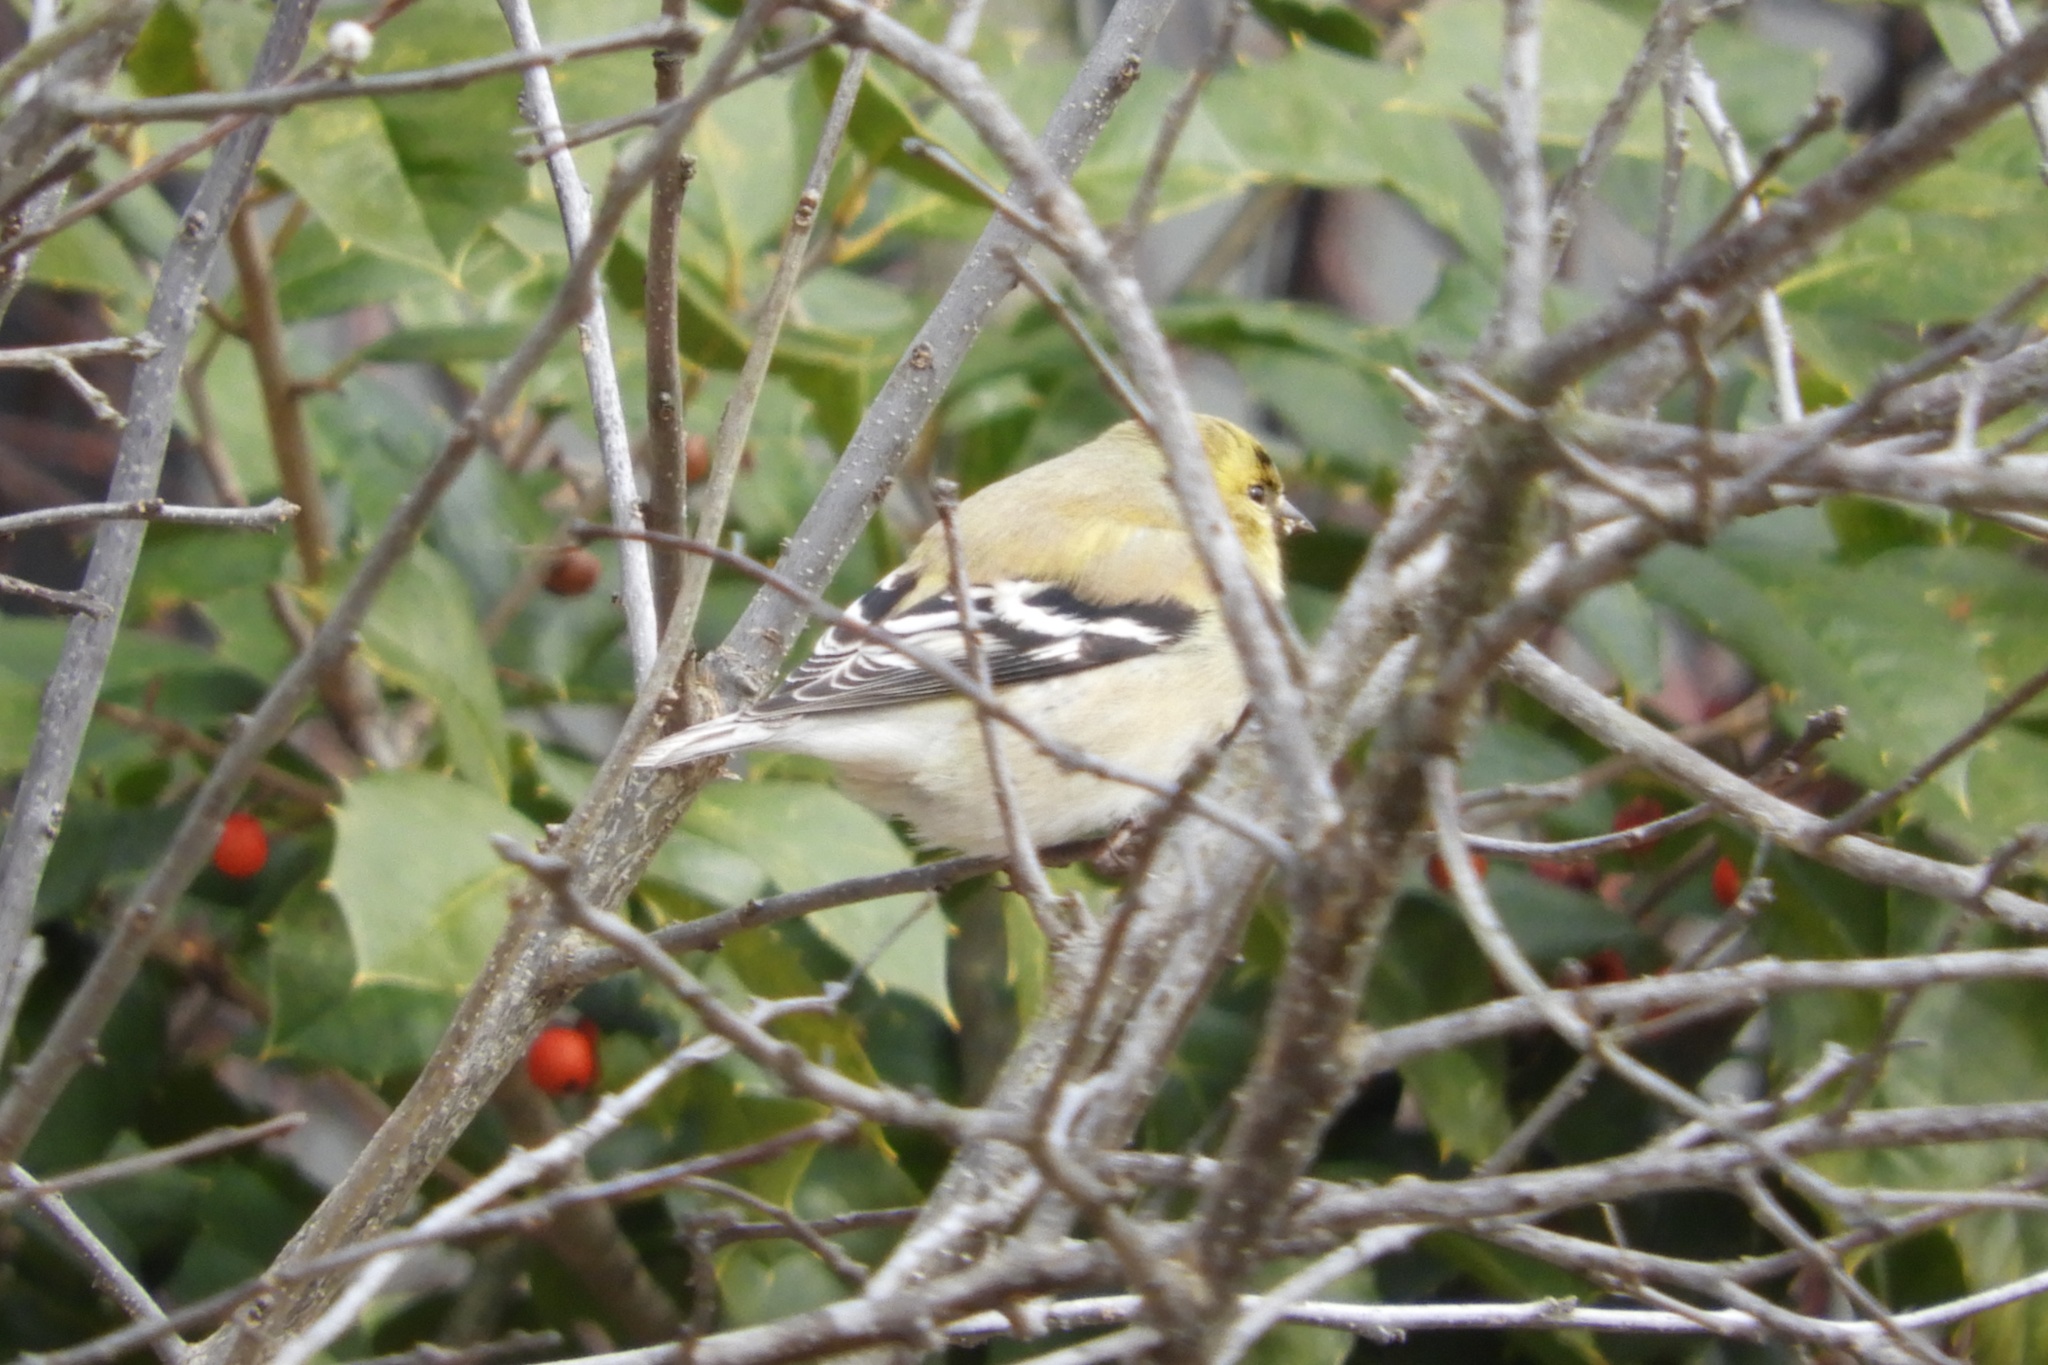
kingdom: Animalia
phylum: Chordata
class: Aves
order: Passeriformes
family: Fringillidae
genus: Spinus
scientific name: Spinus tristis
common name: American goldfinch
